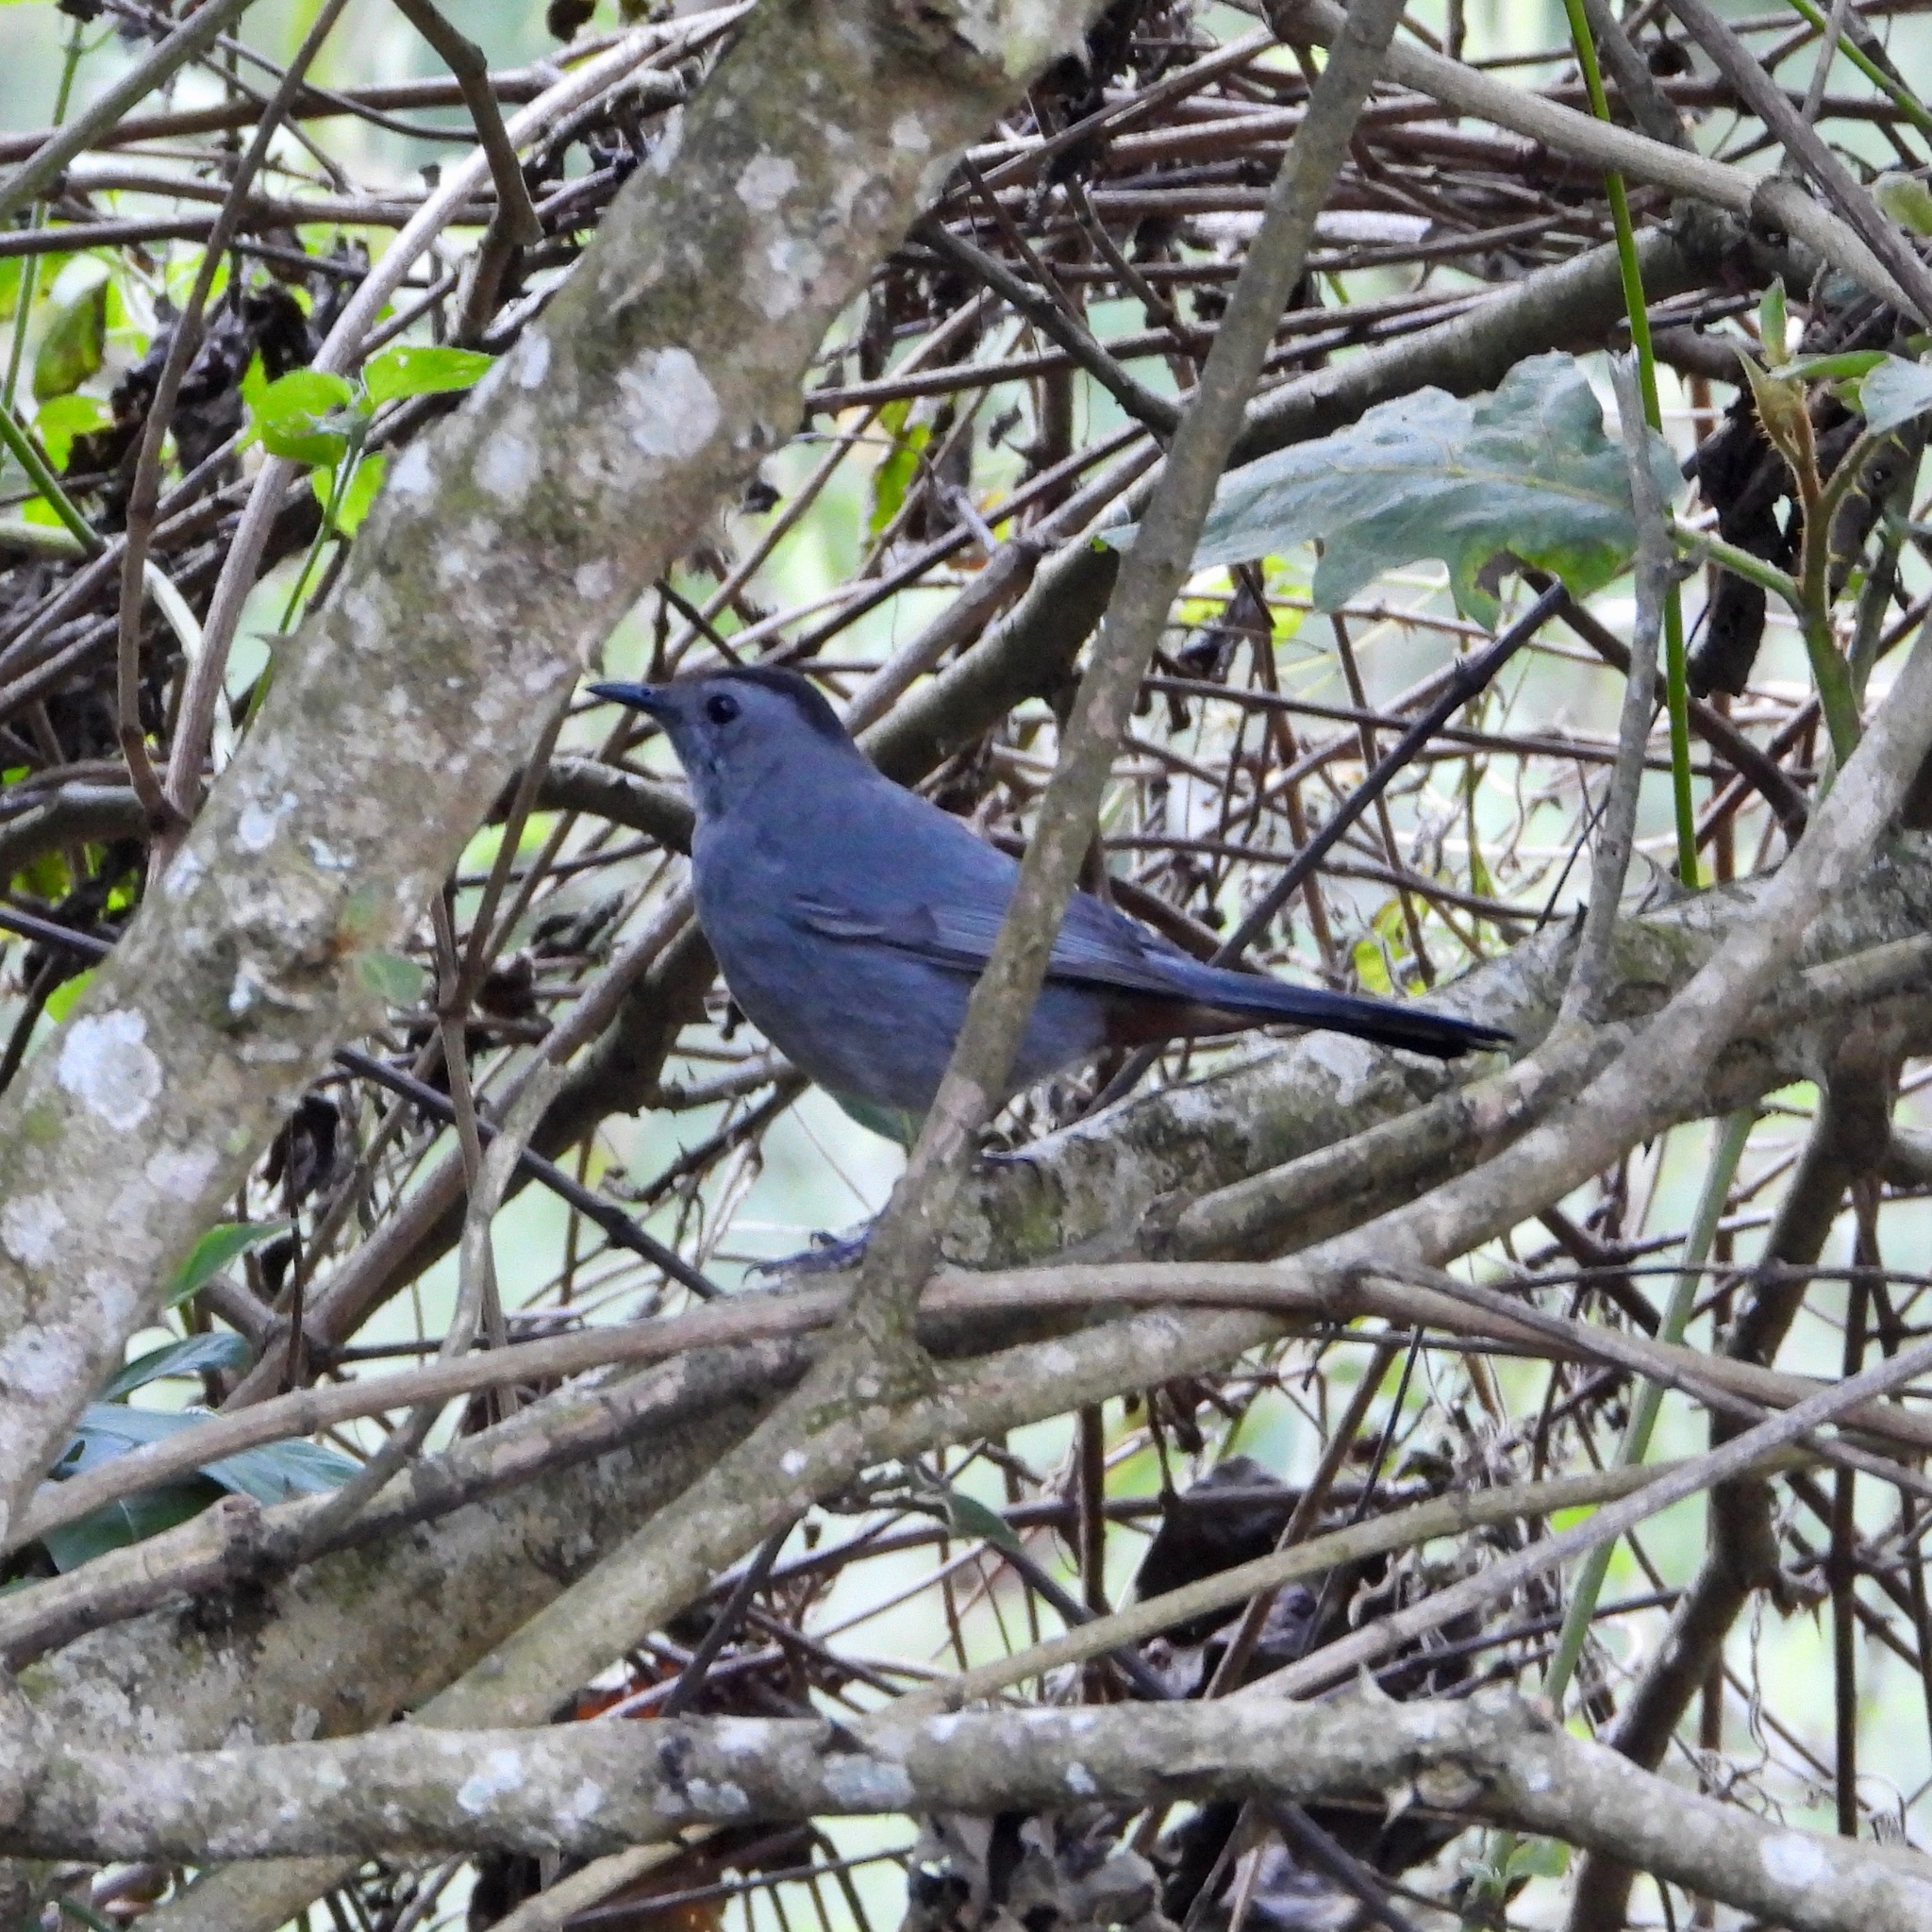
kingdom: Animalia
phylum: Chordata
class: Aves
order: Passeriformes
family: Mimidae
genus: Dumetella
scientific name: Dumetella carolinensis
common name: Gray catbird
